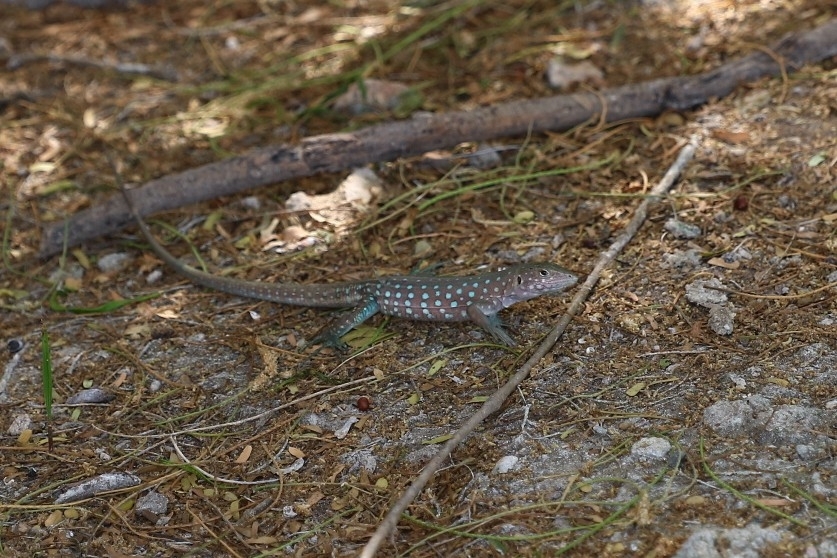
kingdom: Animalia
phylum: Chordata
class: Squamata
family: Teiidae
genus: Cnemidophorus
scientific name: Cnemidophorus arubensis
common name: Aruba whiptail
